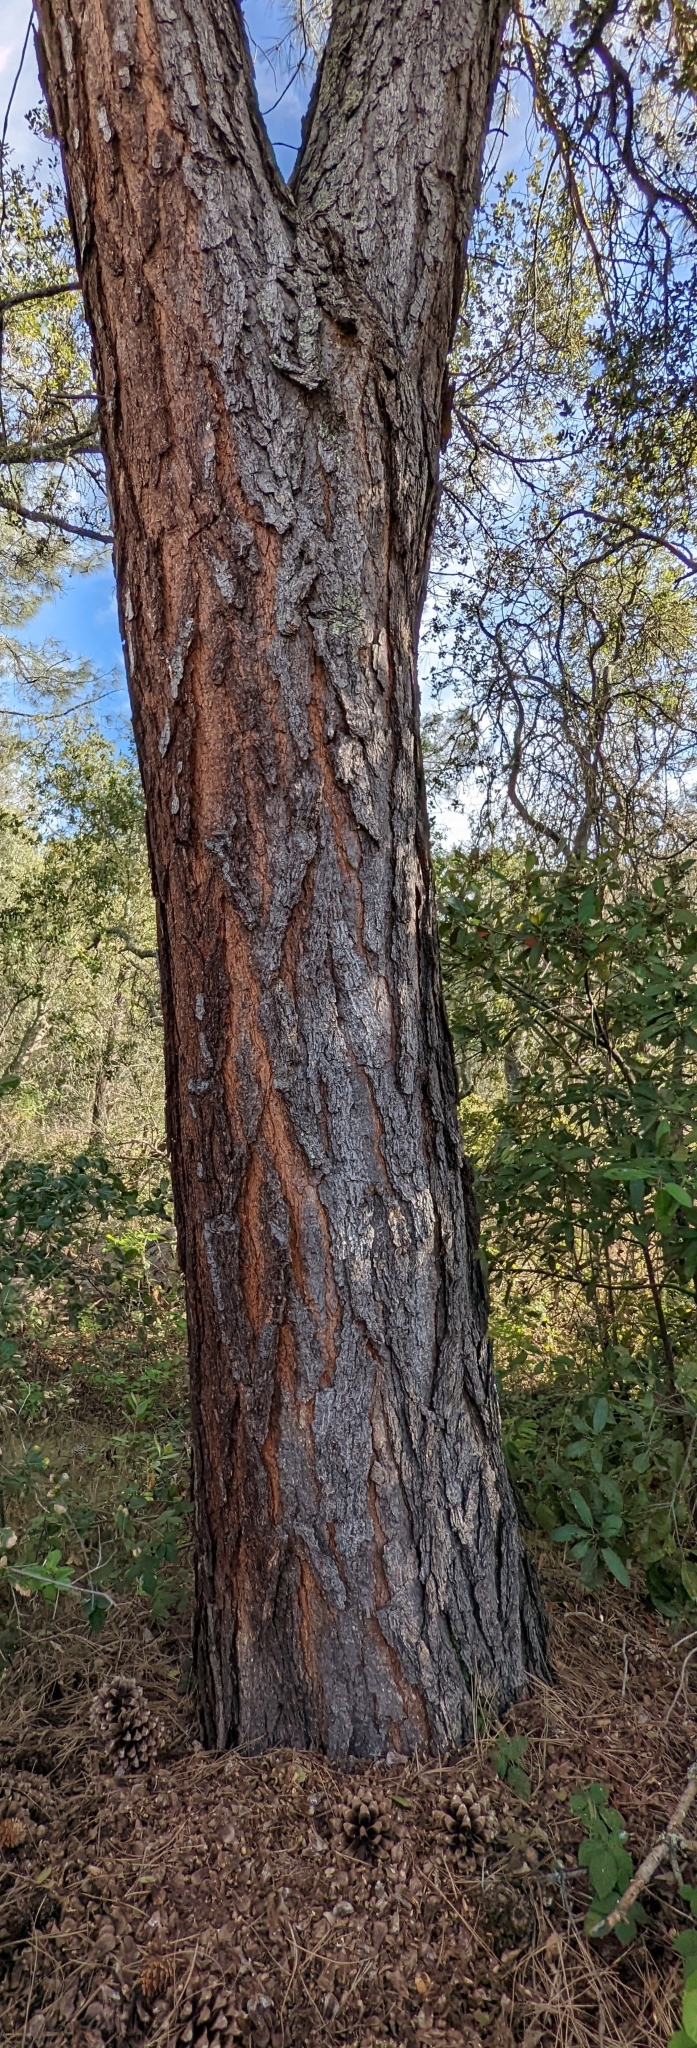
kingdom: Plantae
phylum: Tracheophyta
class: Pinopsida
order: Pinales
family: Pinaceae
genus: Pinus
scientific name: Pinus sabiniana
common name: Bull pine
